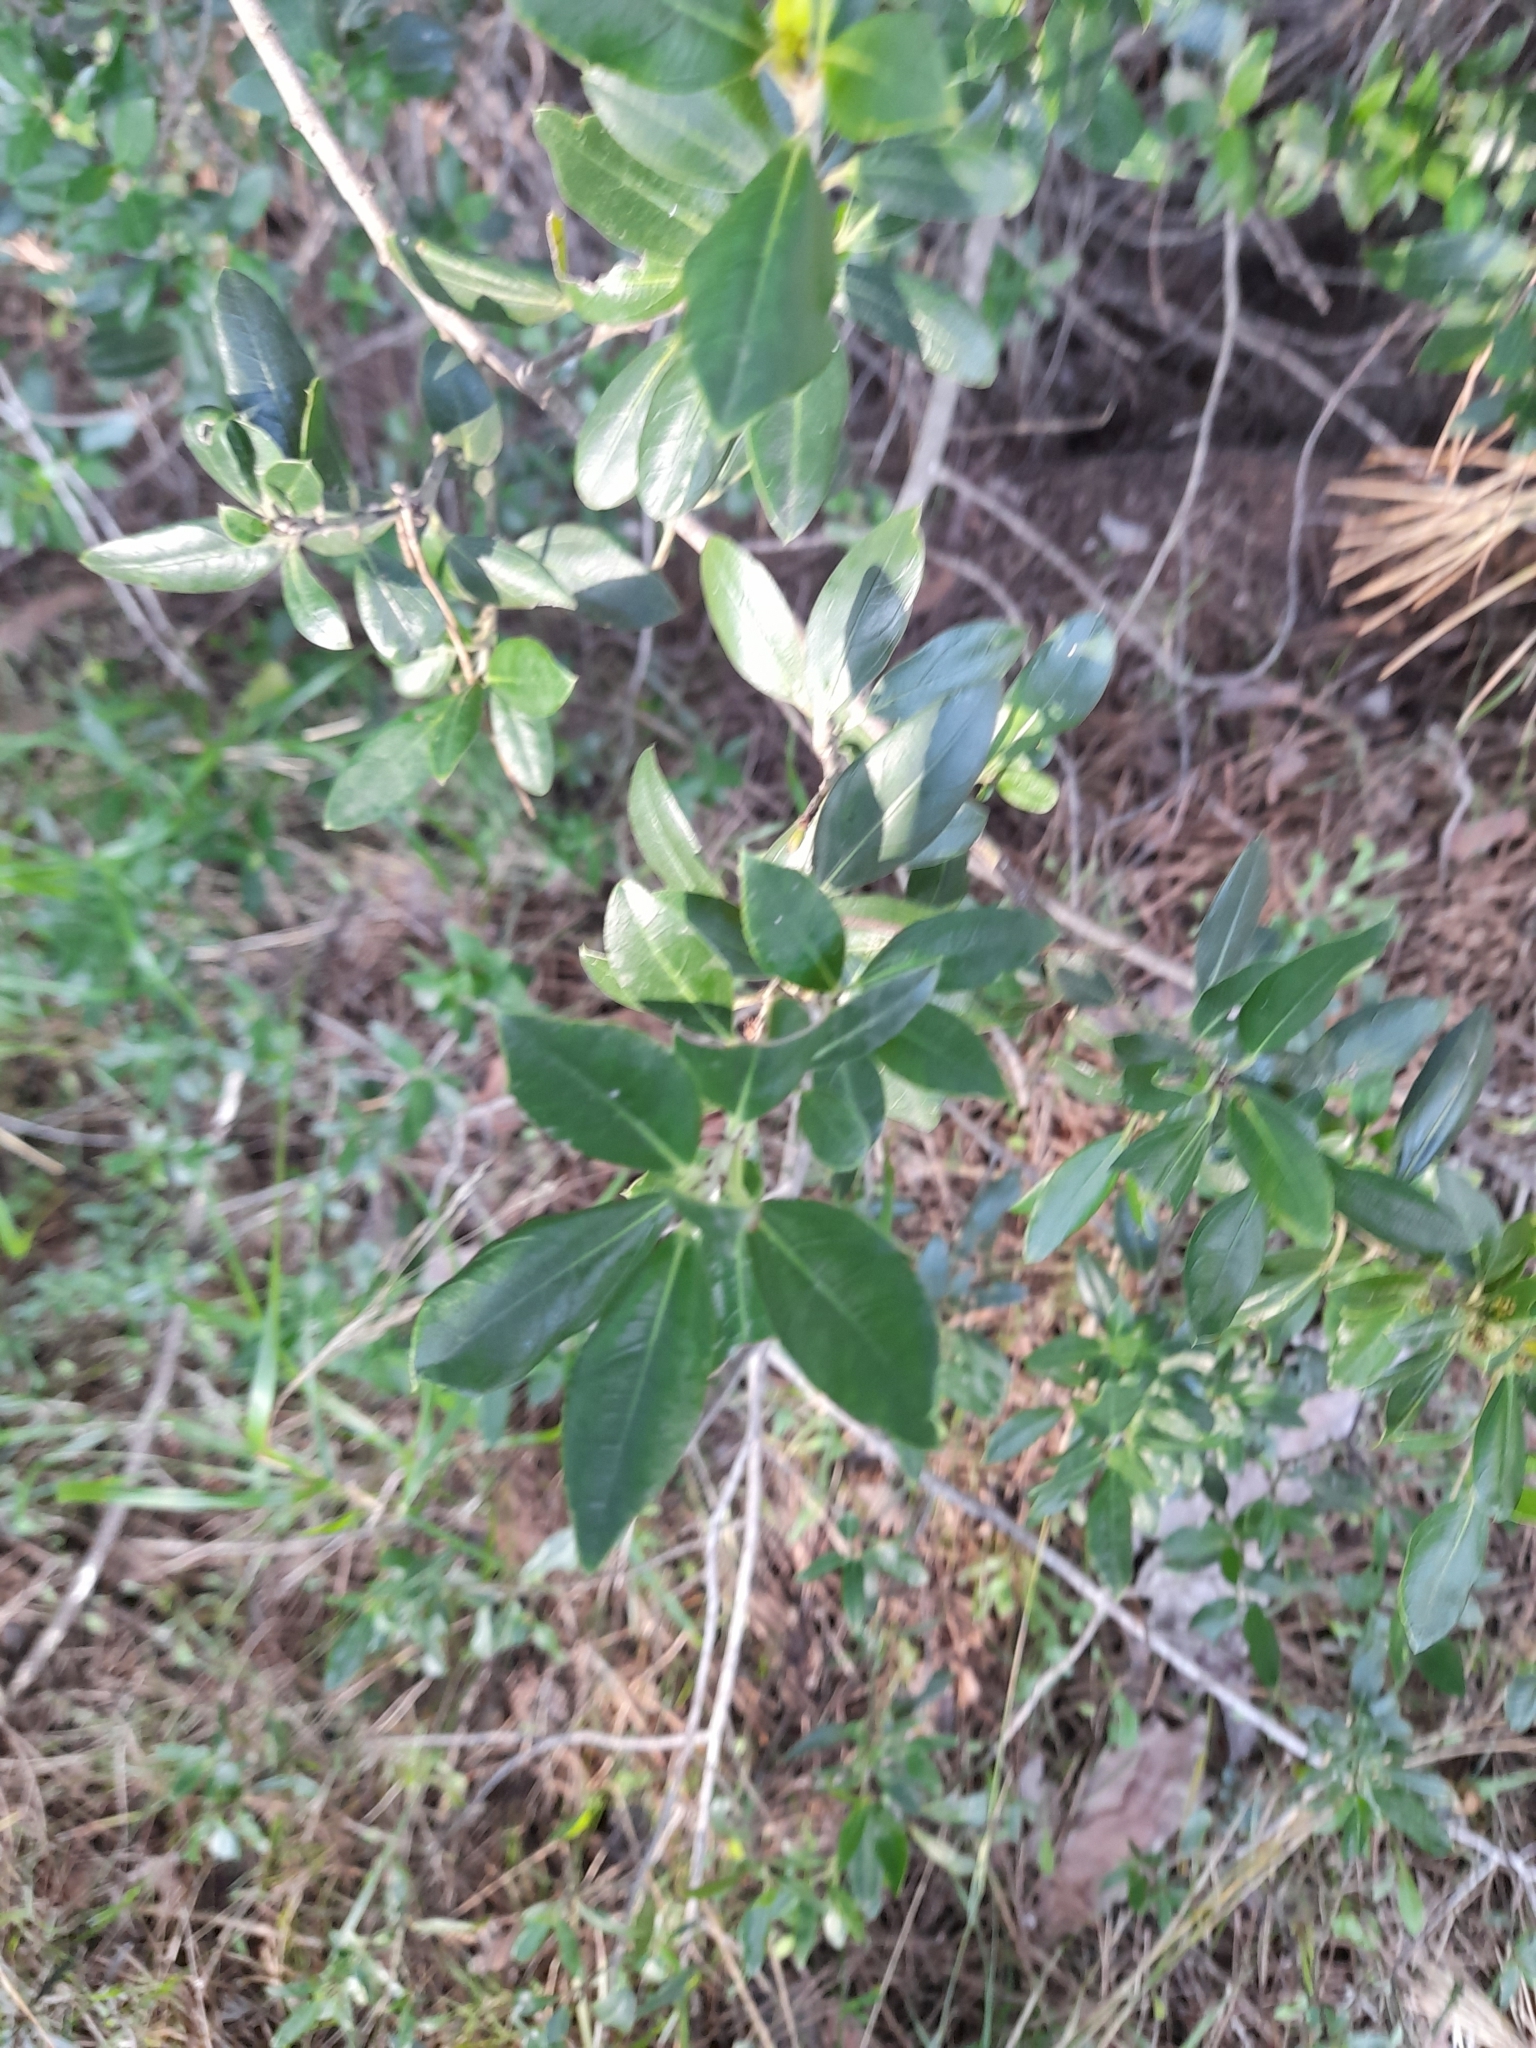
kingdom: Plantae
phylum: Tracheophyta
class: Magnoliopsida
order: Rosales
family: Rhamnaceae
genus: Rhamnus
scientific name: Rhamnus alaternus
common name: Mediterranean buckthorn
